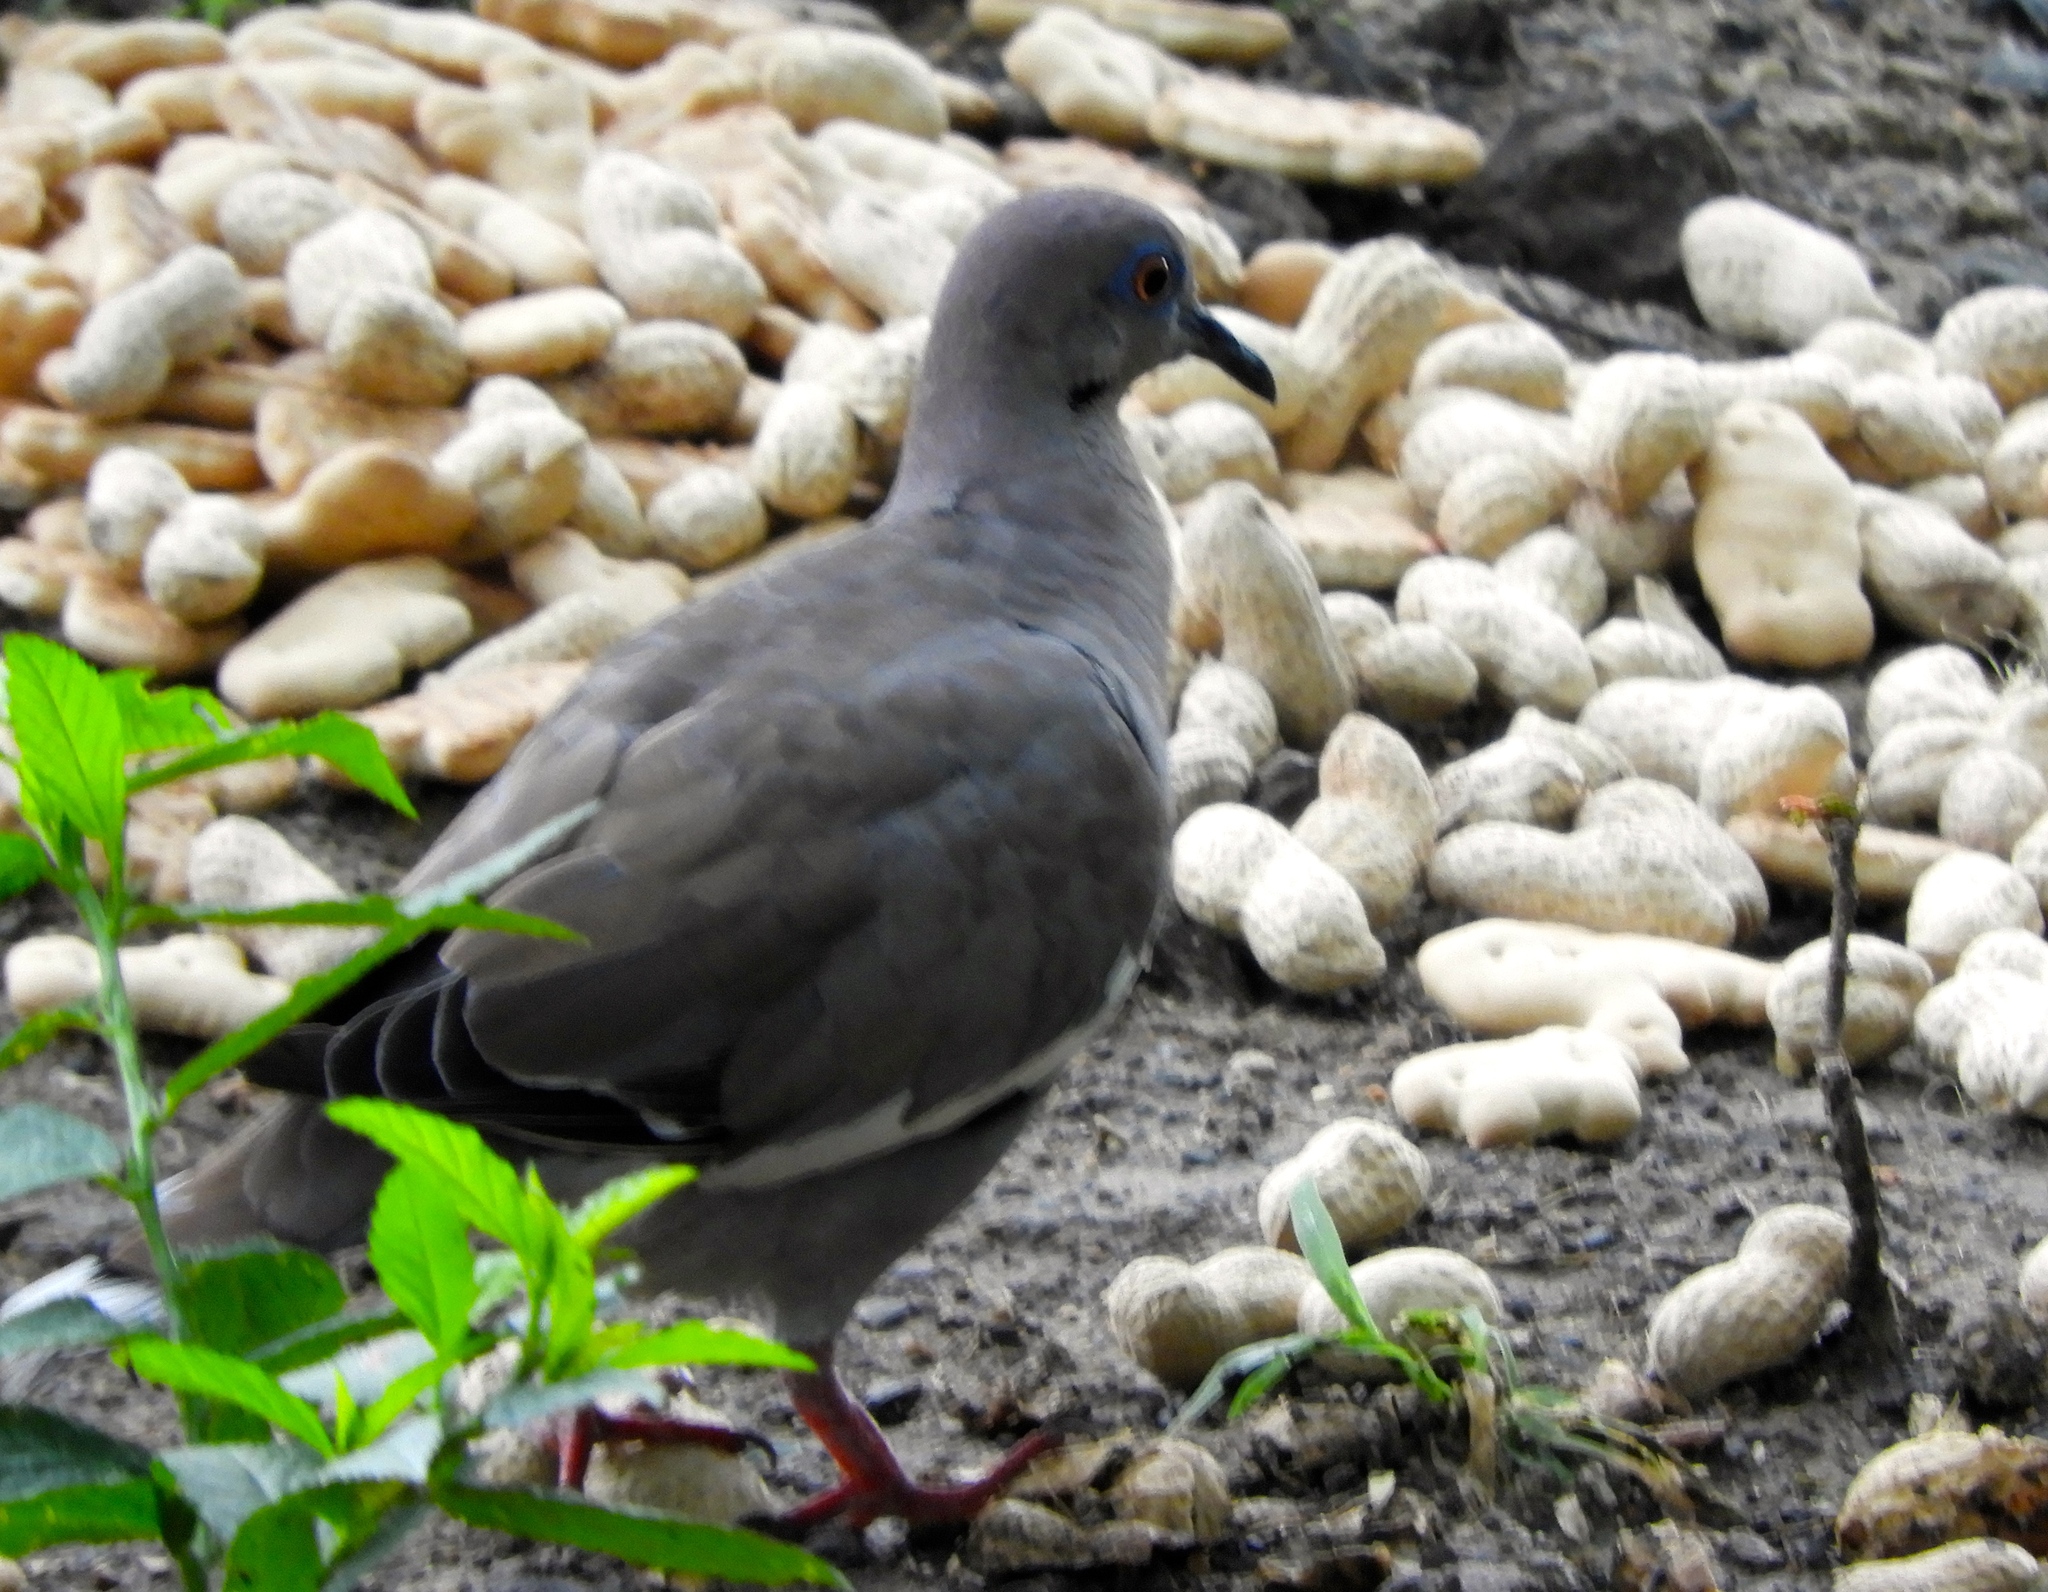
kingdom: Animalia
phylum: Chordata
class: Aves
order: Columbiformes
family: Columbidae
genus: Zenaida
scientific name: Zenaida asiatica
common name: White-winged dove
